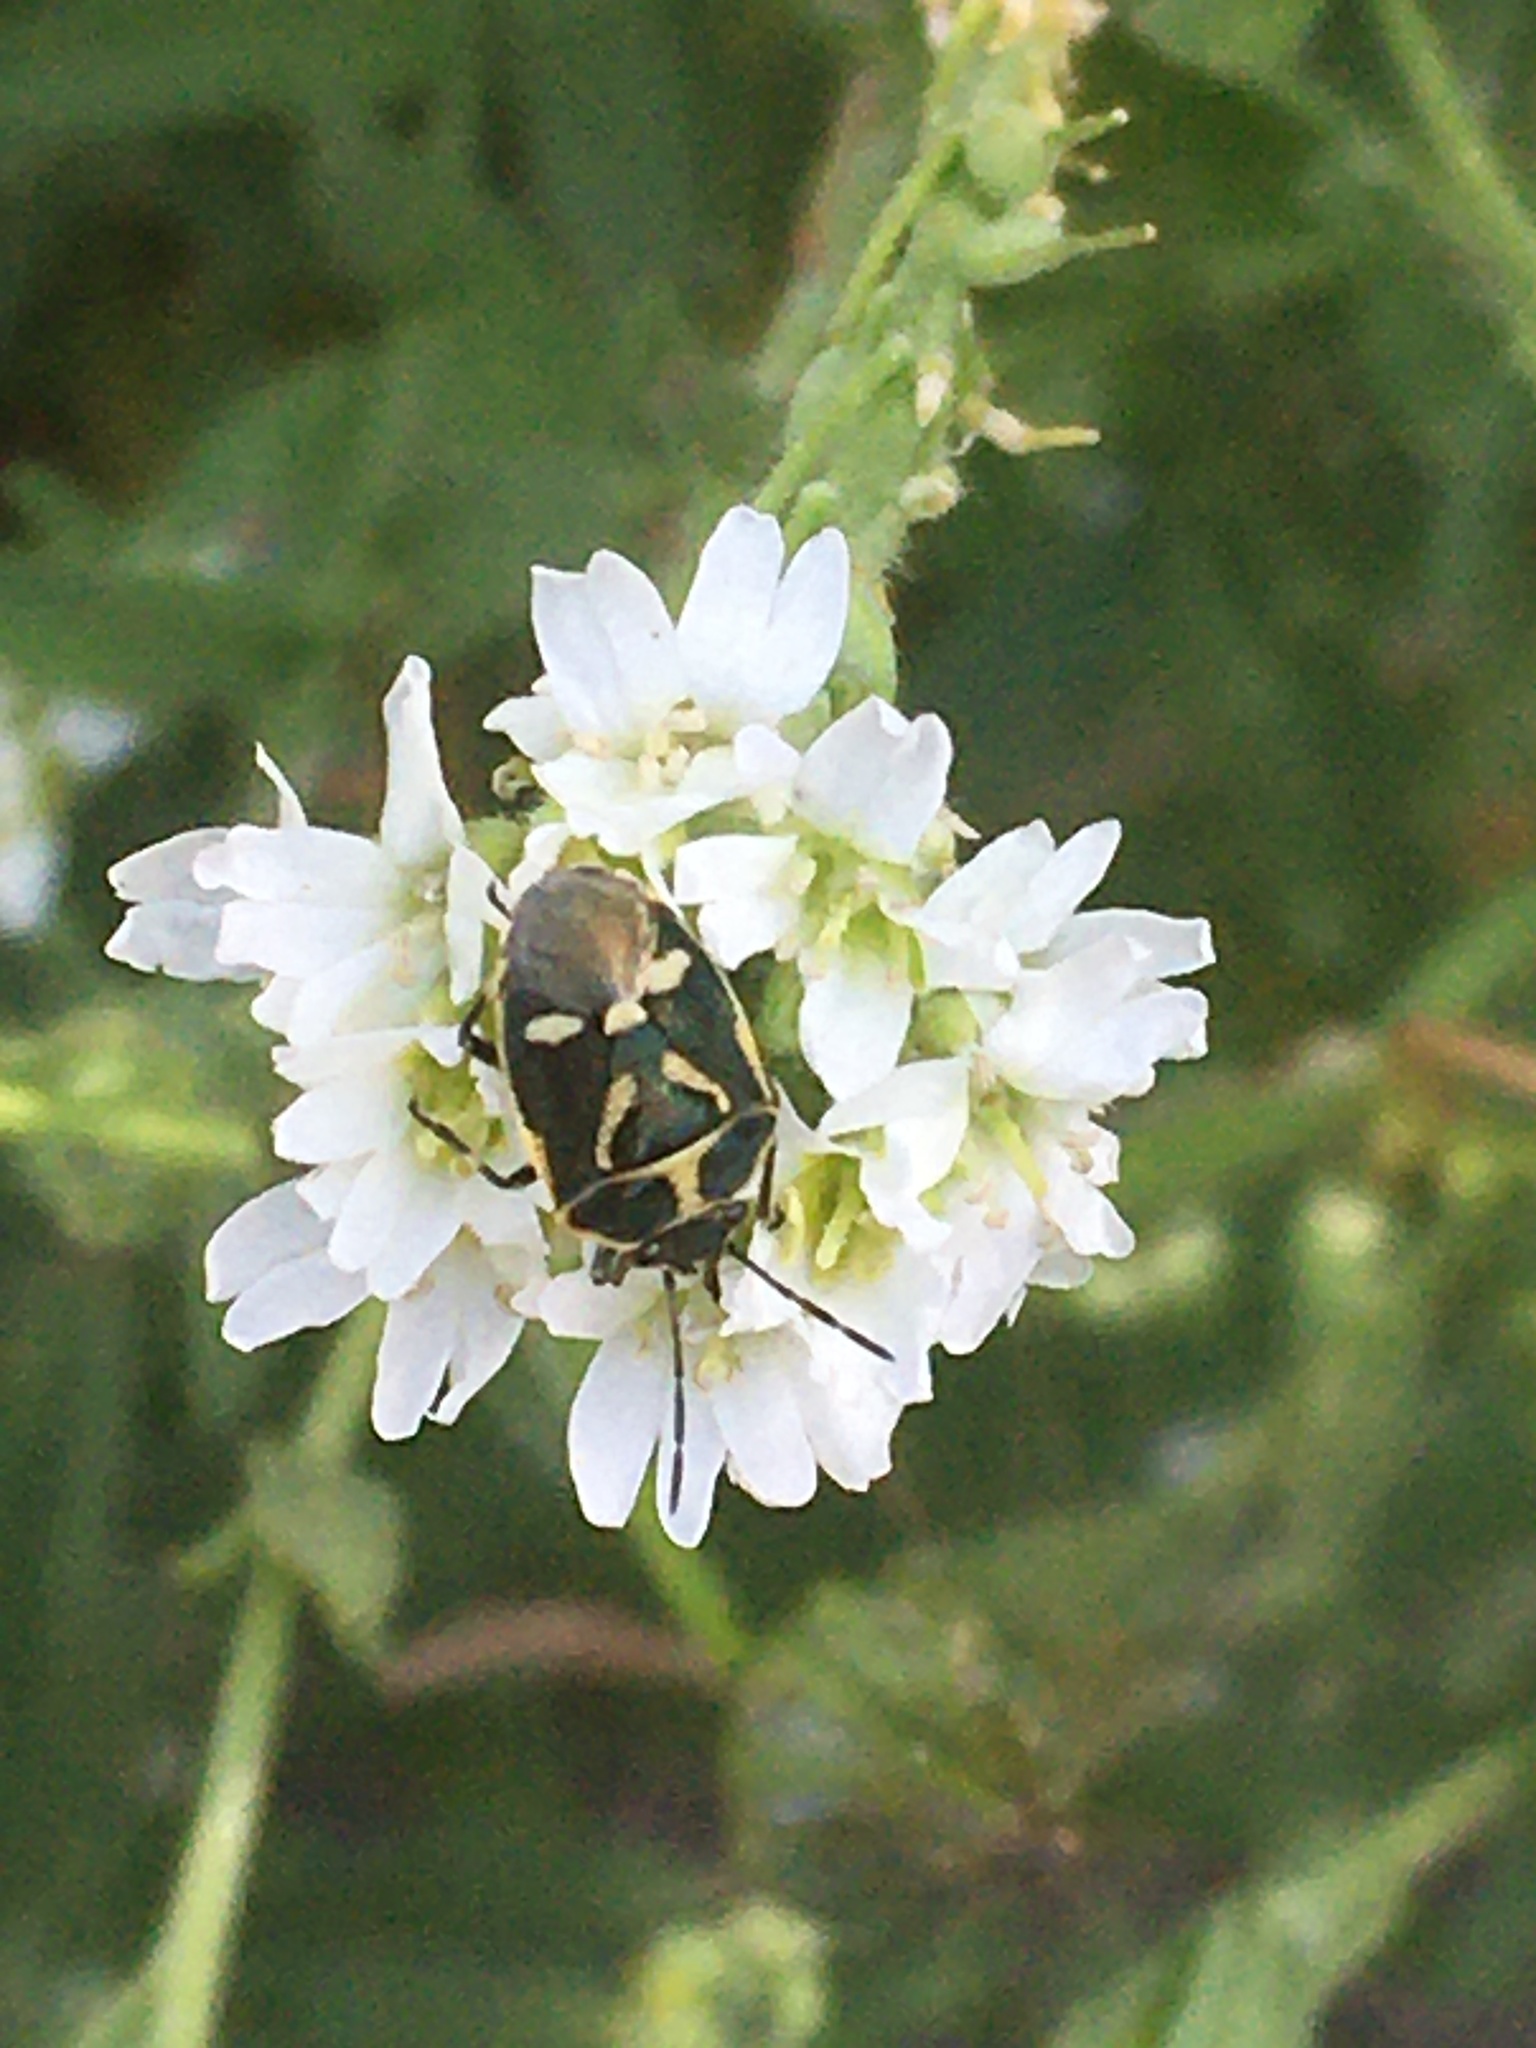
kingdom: Animalia
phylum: Arthropoda
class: Insecta
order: Hemiptera
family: Pentatomidae
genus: Eurydema
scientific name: Eurydema oleracea
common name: Cabbage bug
